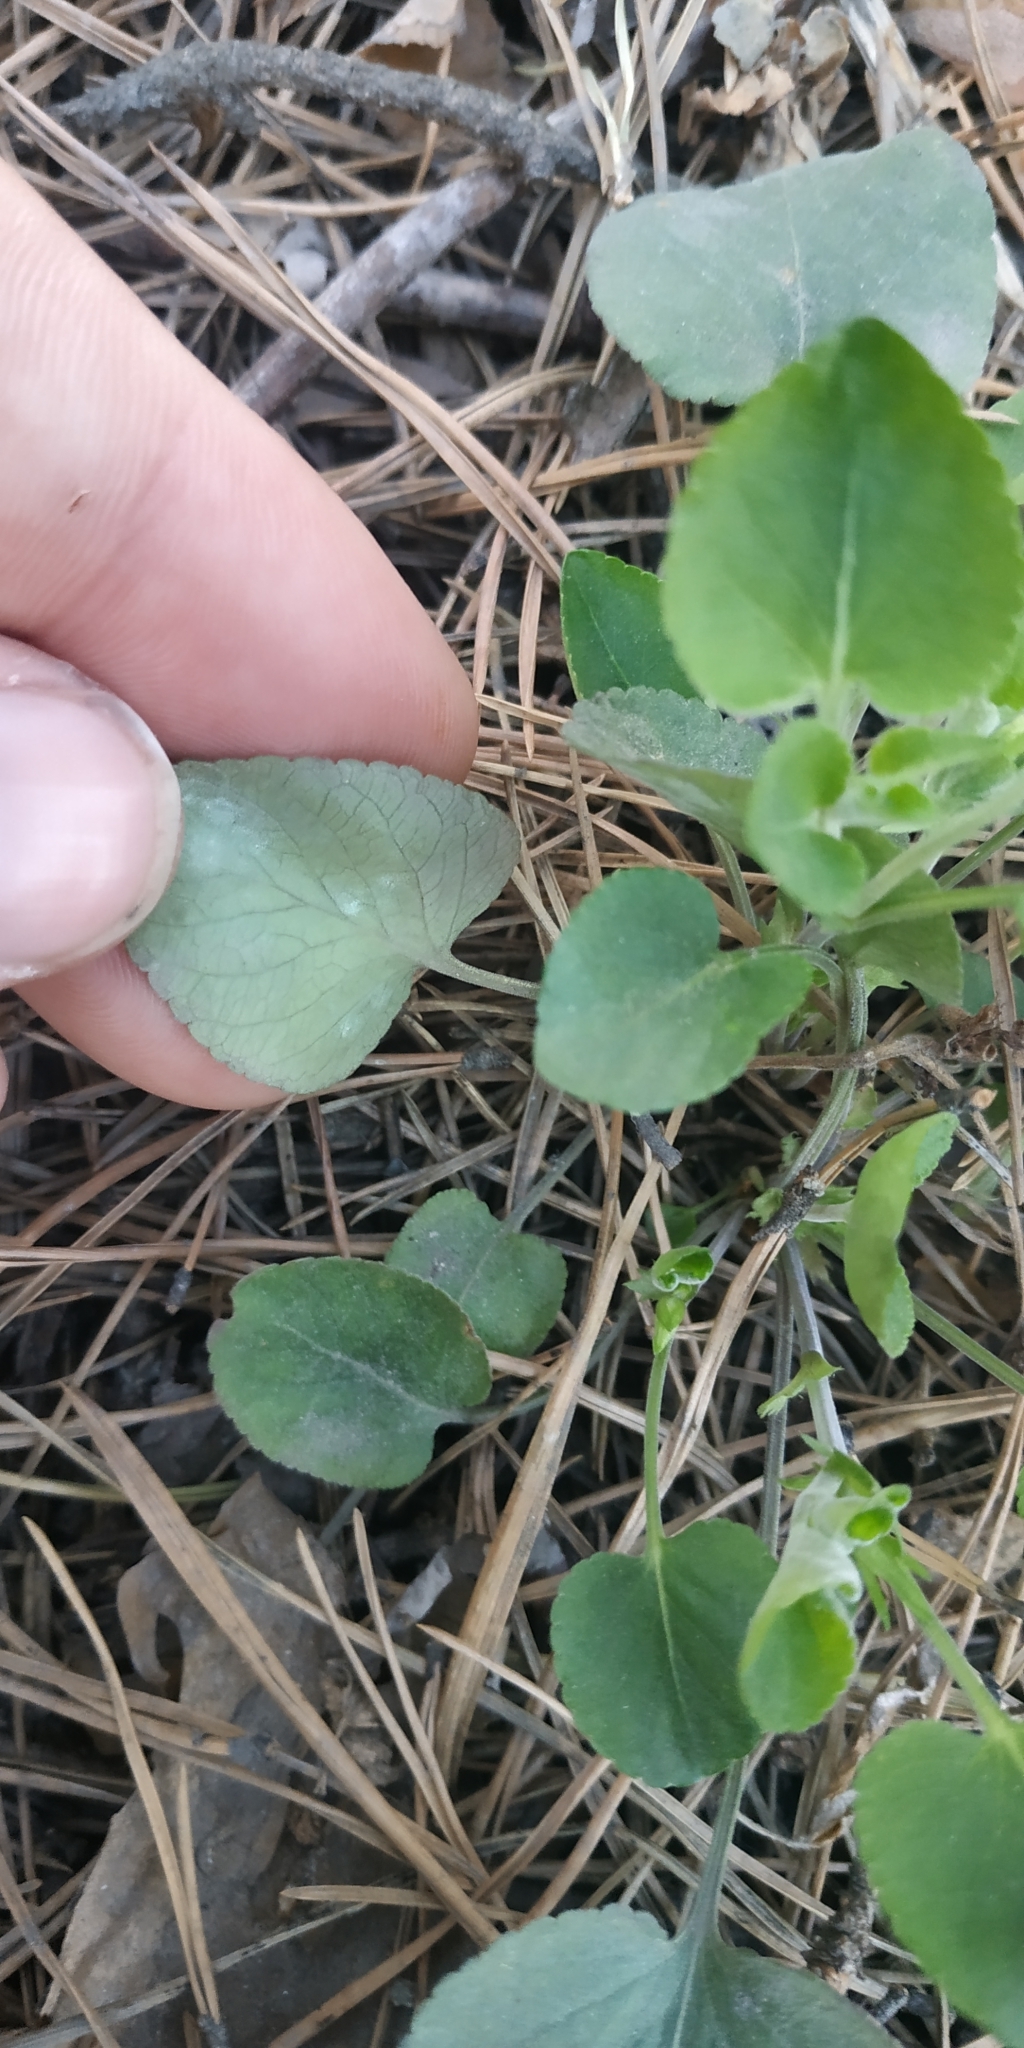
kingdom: Plantae
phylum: Tracheophyta
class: Magnoliopsida
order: Malpighiales
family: Violaceae
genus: Viola
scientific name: Viola rupestris
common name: Teesdale violet
